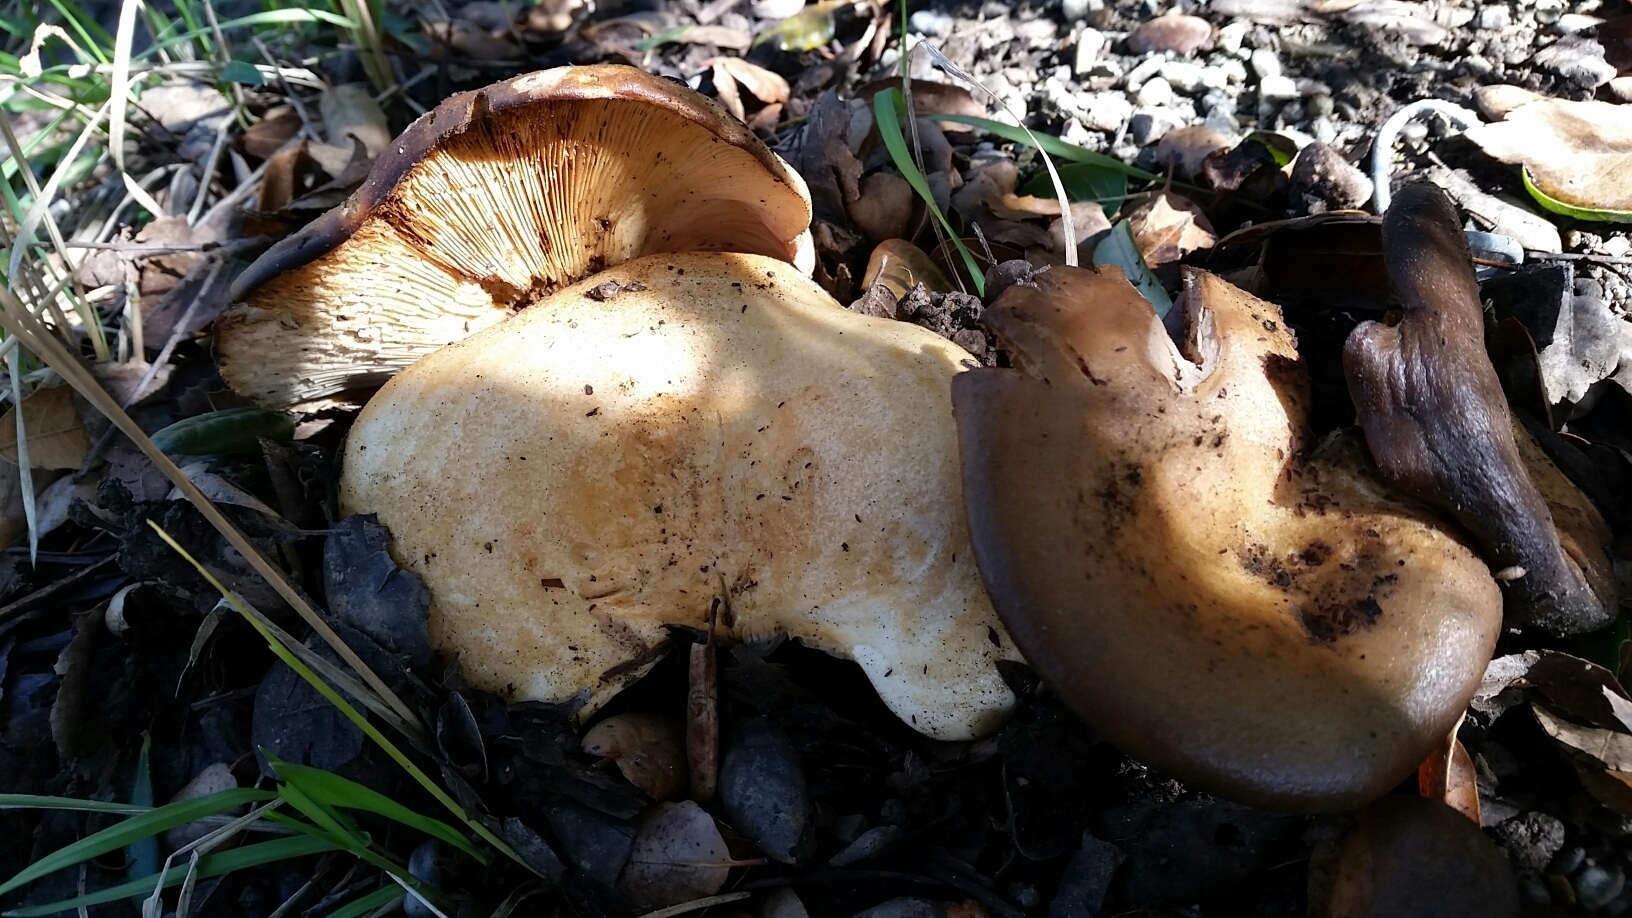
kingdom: Fungi
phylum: Basidiomycota
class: Agaricomycetes
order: Russulales
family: Russulaceae
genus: Lactarius
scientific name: Lactarius alnicola
